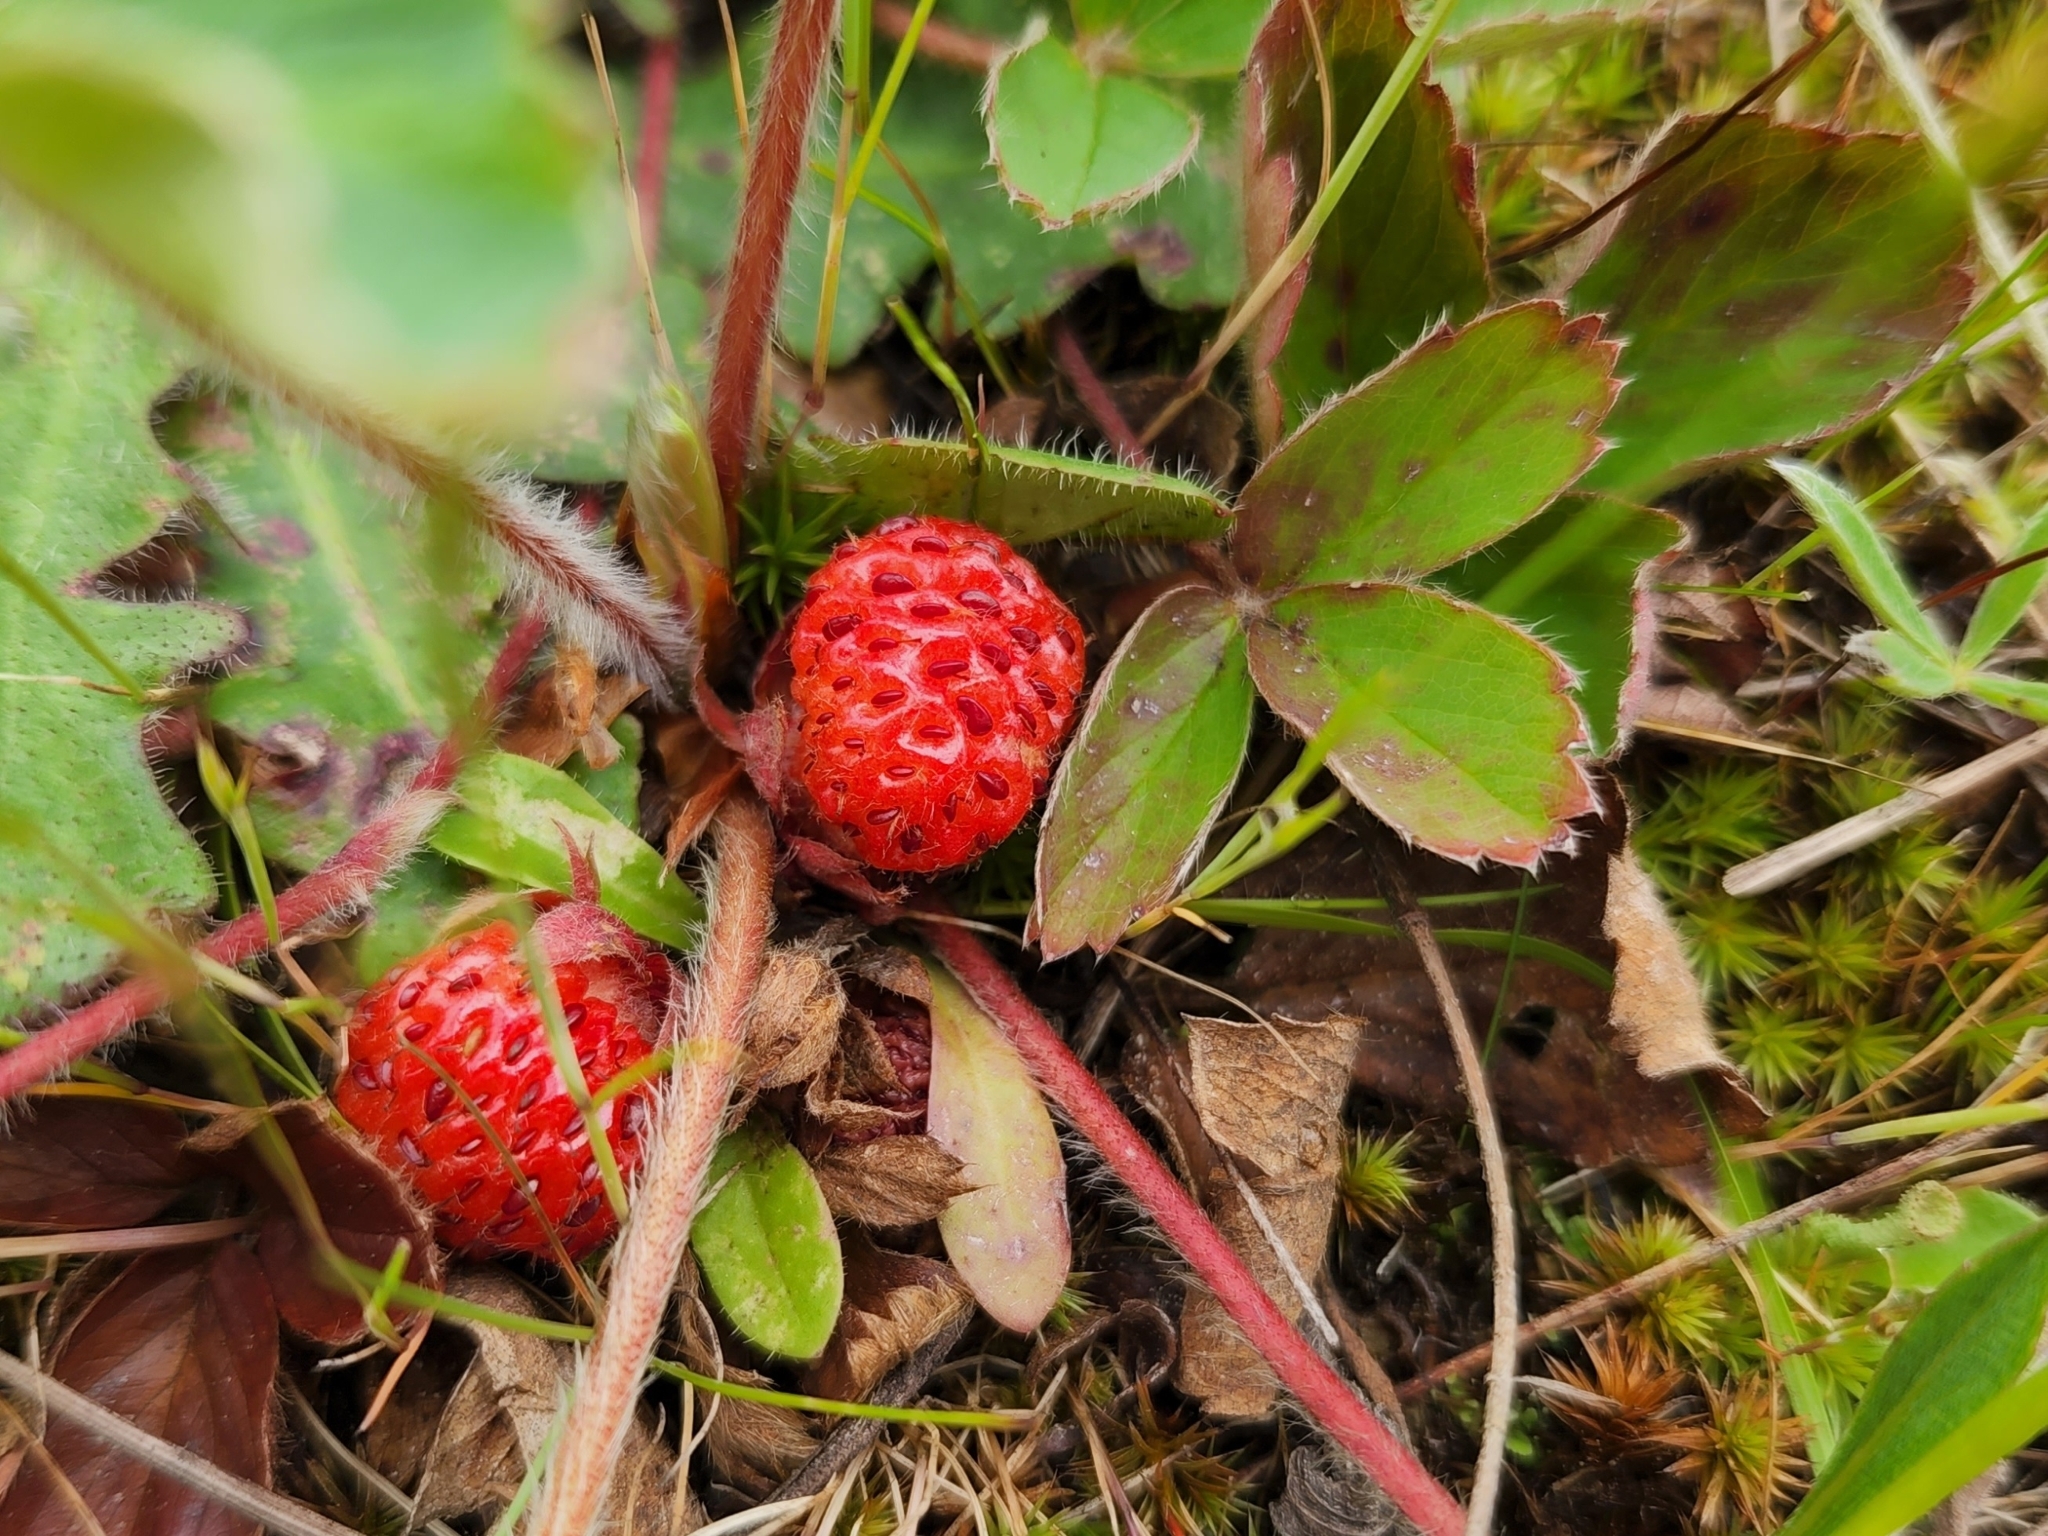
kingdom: Plantae
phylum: Tracheophyta
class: Magnoliopsida
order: Rosales
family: Rosaceae
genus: Fragaria
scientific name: Fragaria virginiana
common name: Thickleaved wild strawberry
